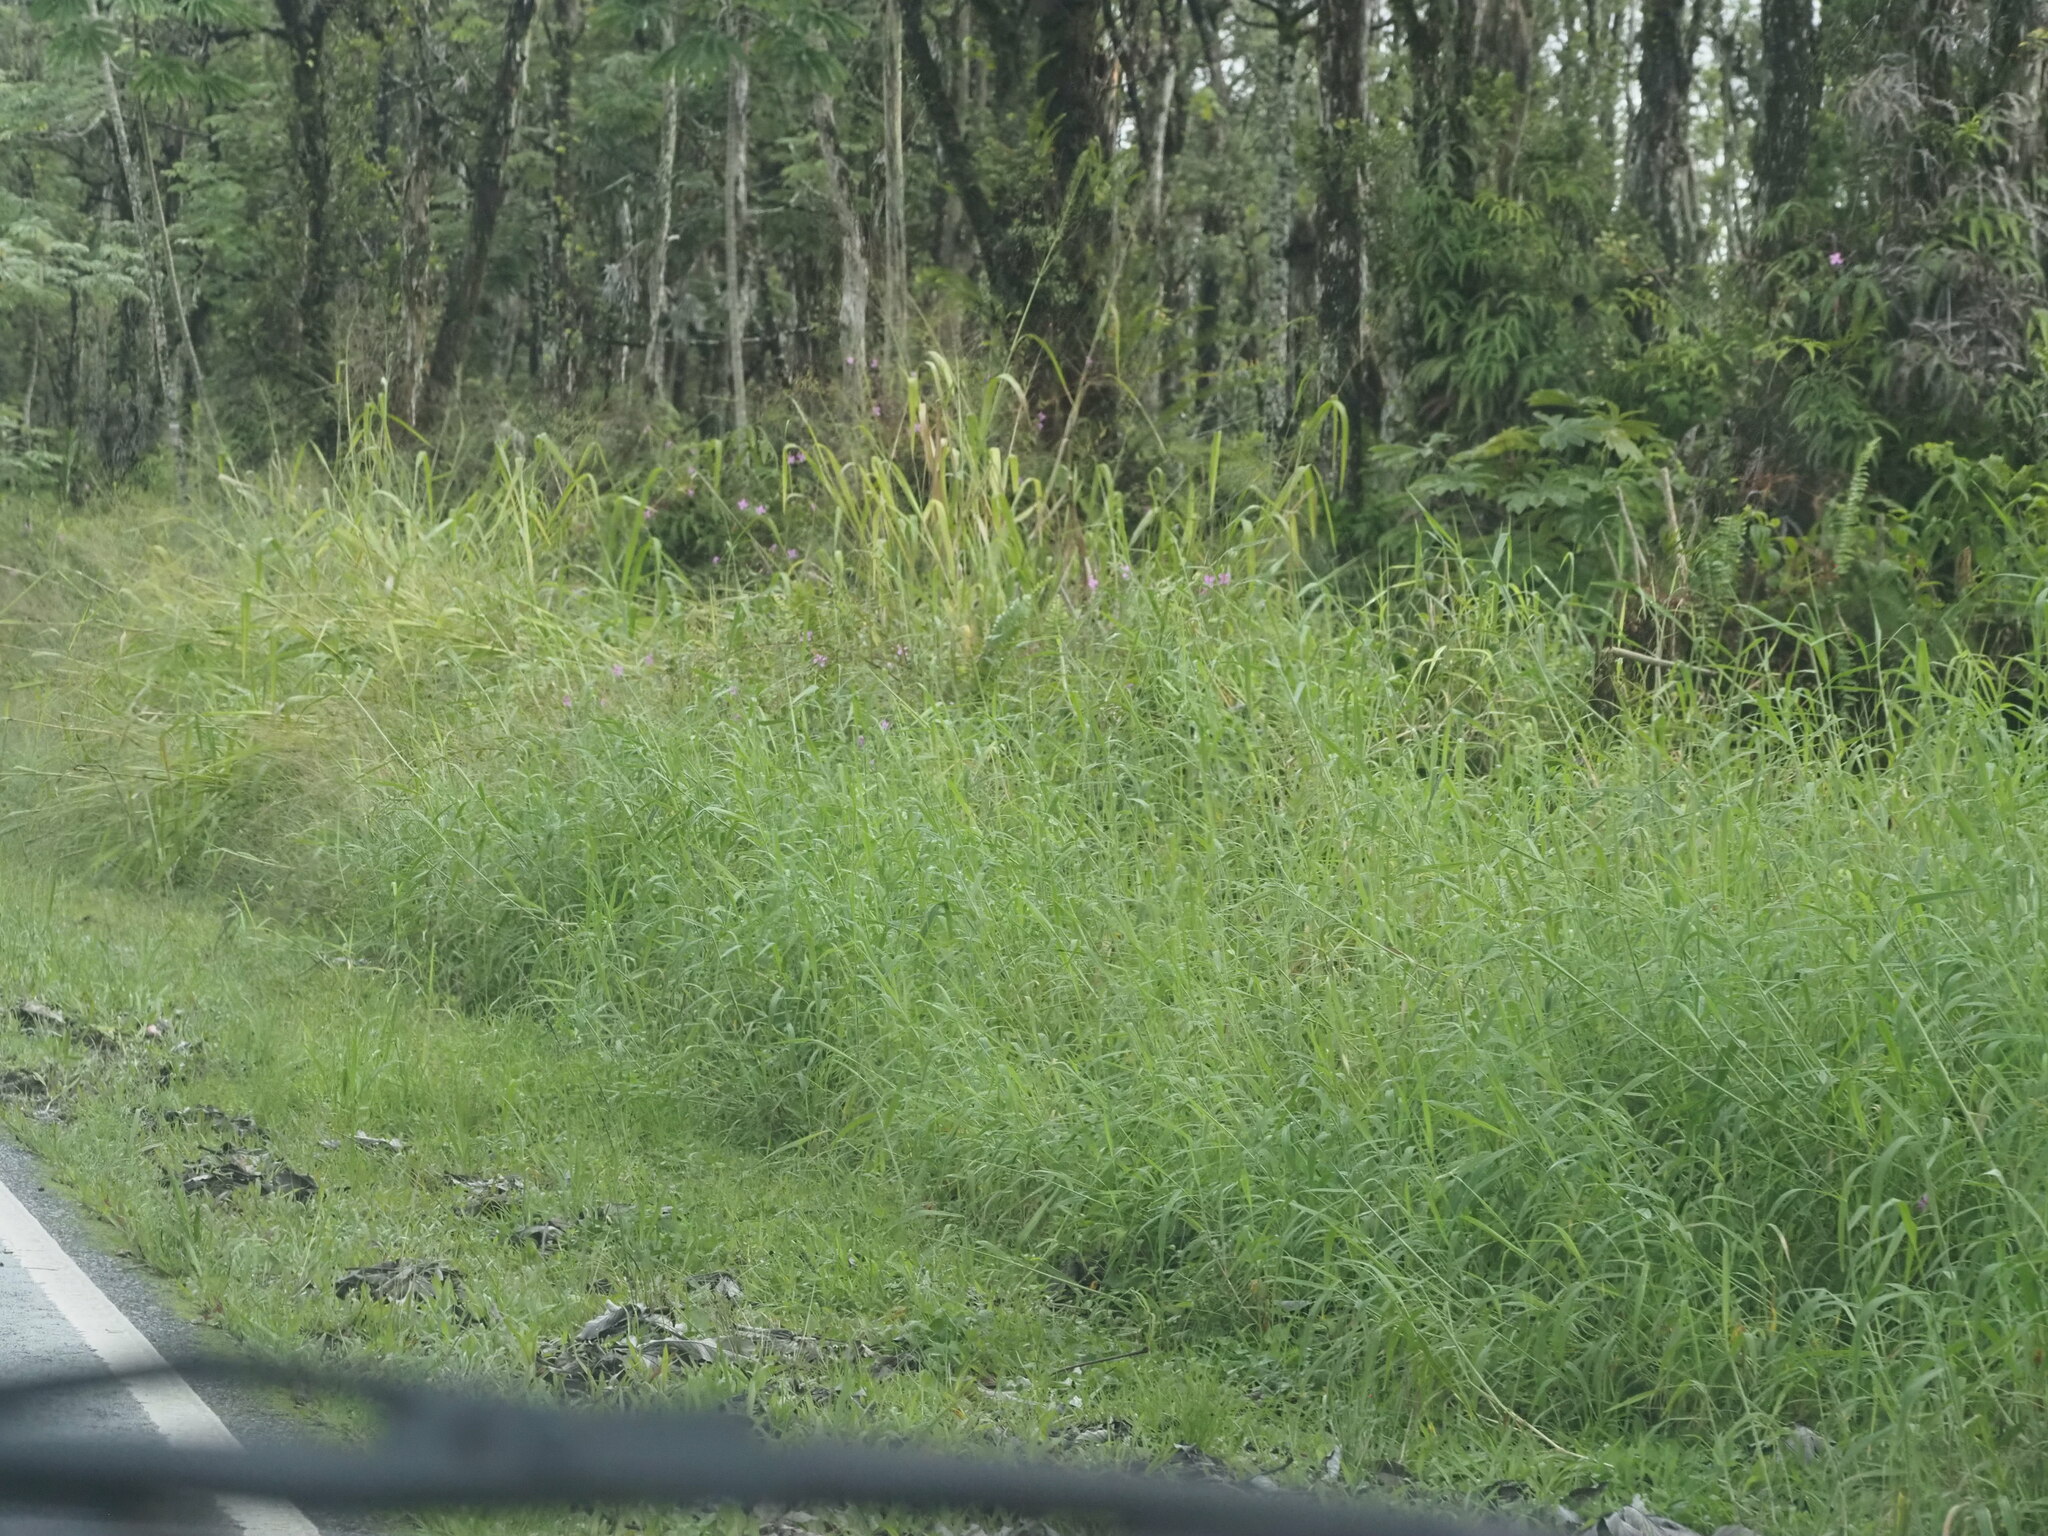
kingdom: Plantae
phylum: Tracheophyta
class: Liliopsida
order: Poales
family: Poaceae
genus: Urochloa
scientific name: Urochloa mutica
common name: Para grass
